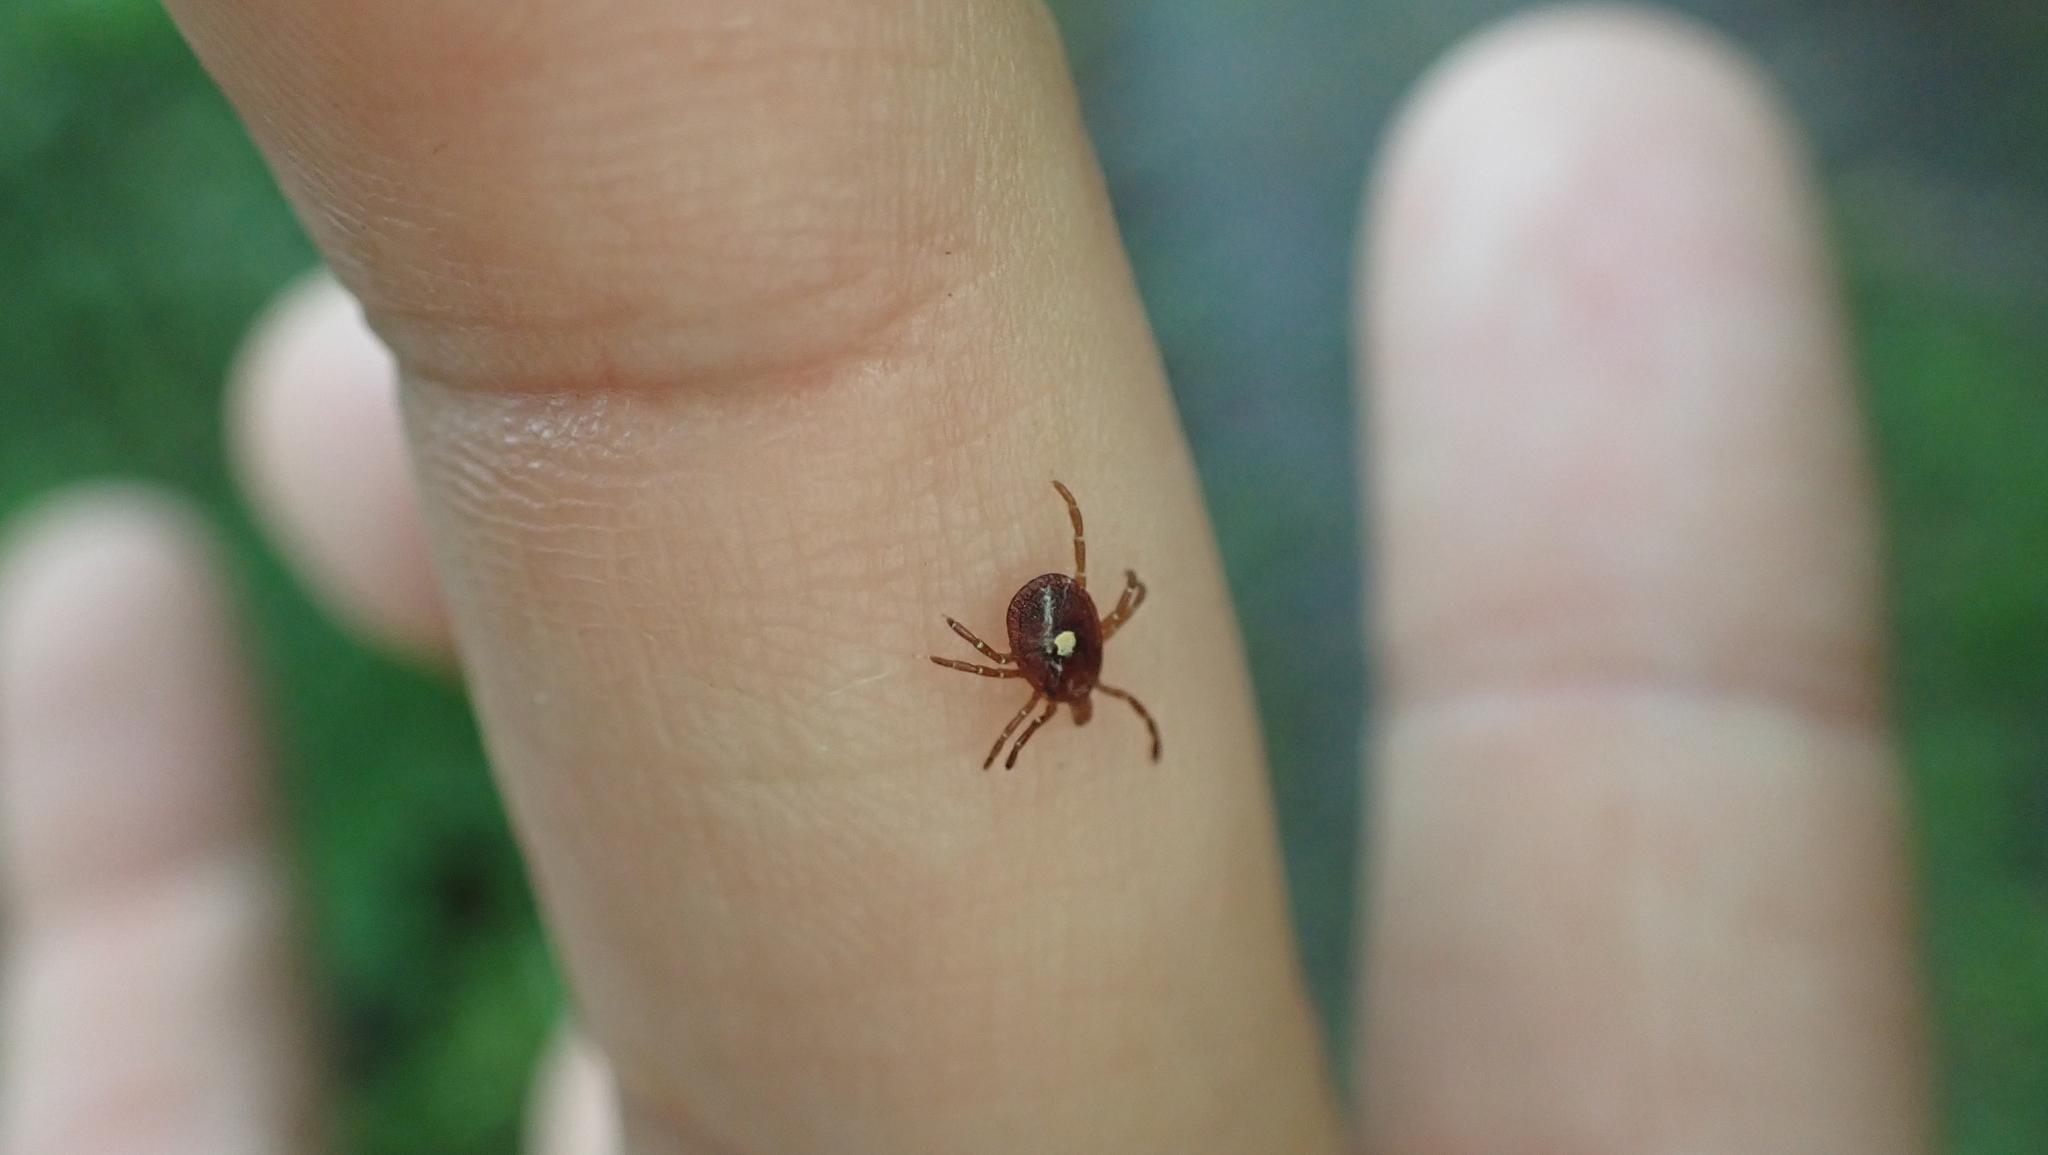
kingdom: Animalia
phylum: Arthropoda
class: Arachnida
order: Ixodida
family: Ixodidae
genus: Amblyomma
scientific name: Amblyomma americanum
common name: Lone star tick
